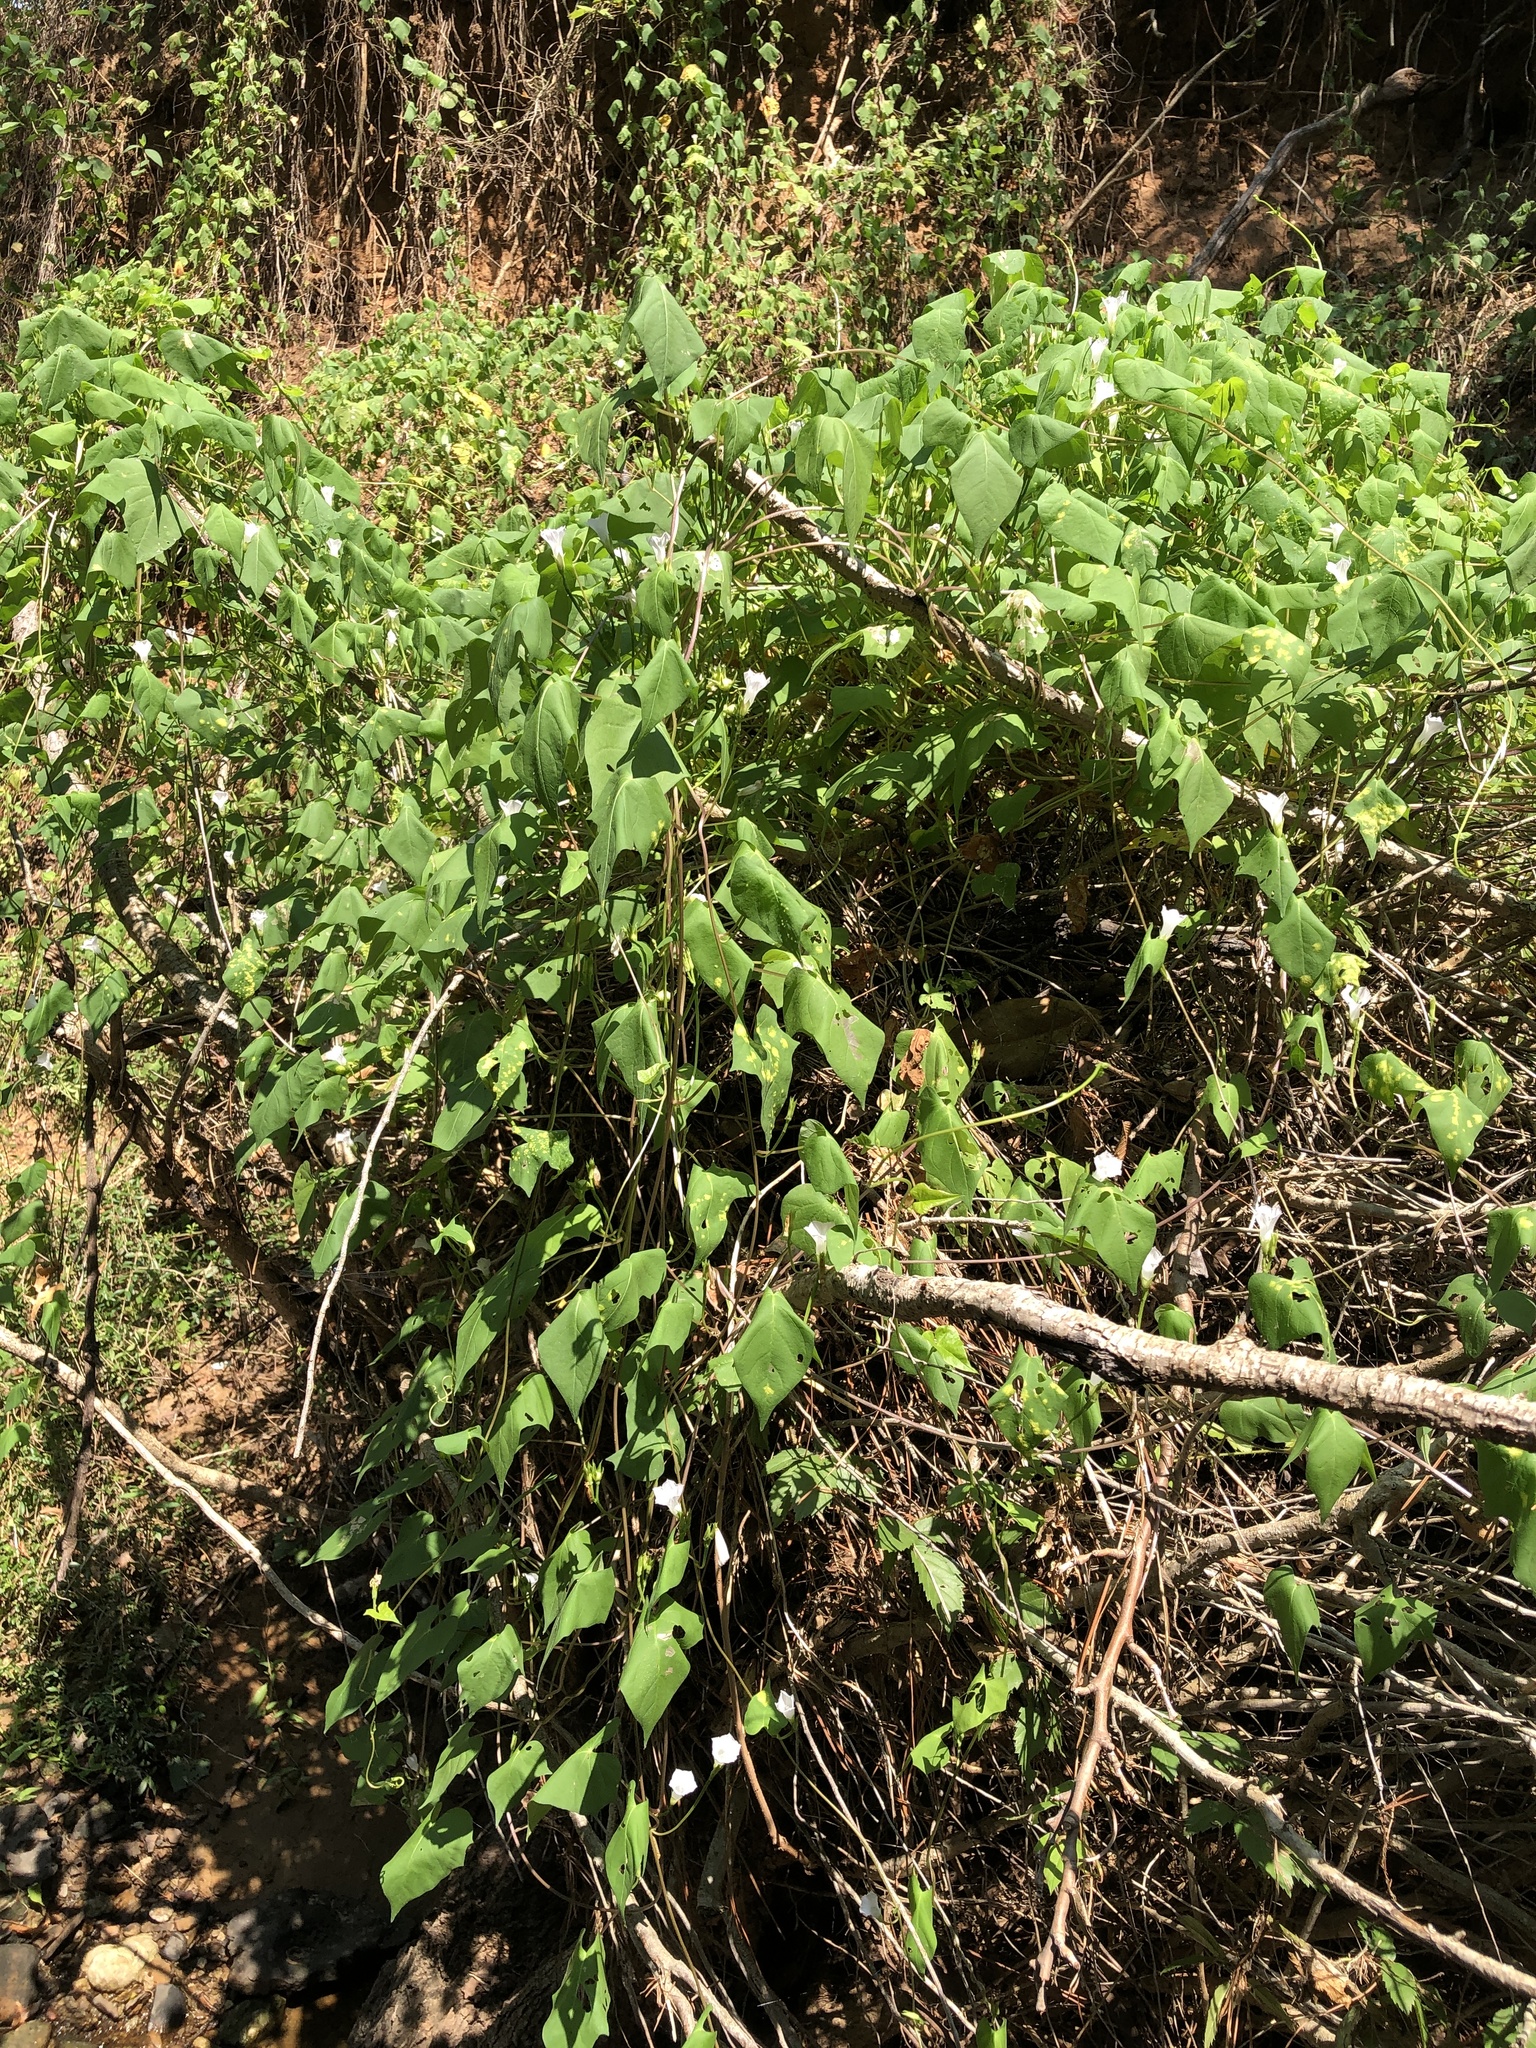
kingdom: Plantae
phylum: Tracheophyta
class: Magnoliopsida
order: Solanales
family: Convolvulaceae
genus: Ipomoea
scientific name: Ipomoea lacunosa
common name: White morning-glory
